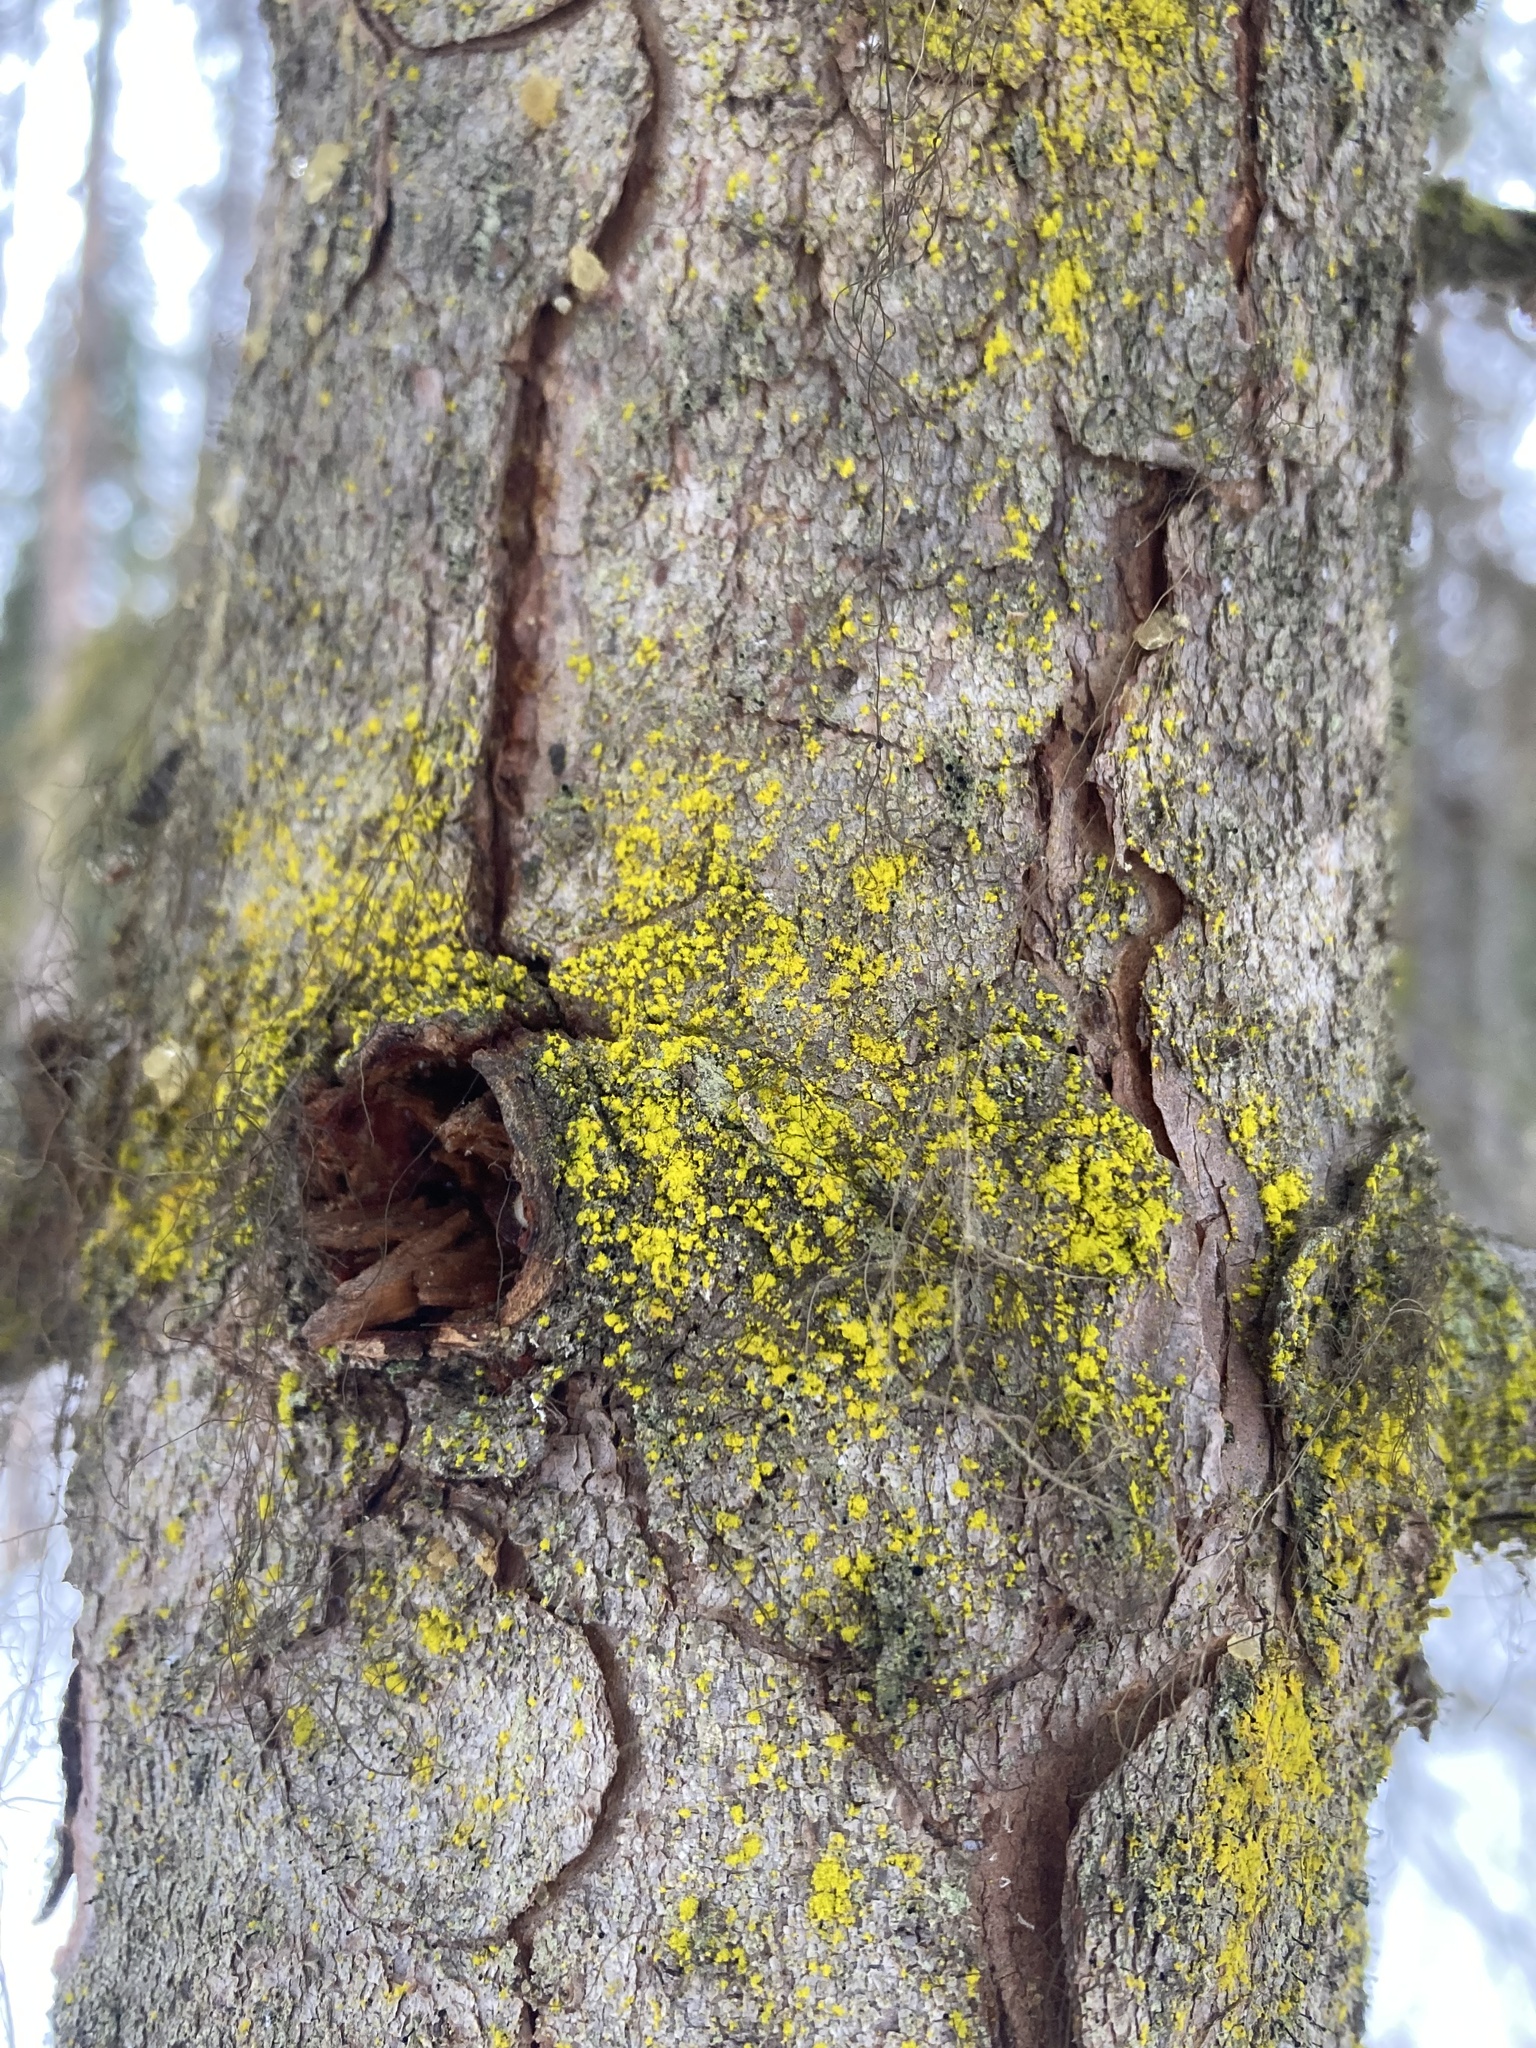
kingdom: Fungi
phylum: Ascomycota
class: Arthoniomycetes
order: Arthoniales
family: Chrysotrichaceae
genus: Chrysothrix
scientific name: Chrysothrix candelaris
